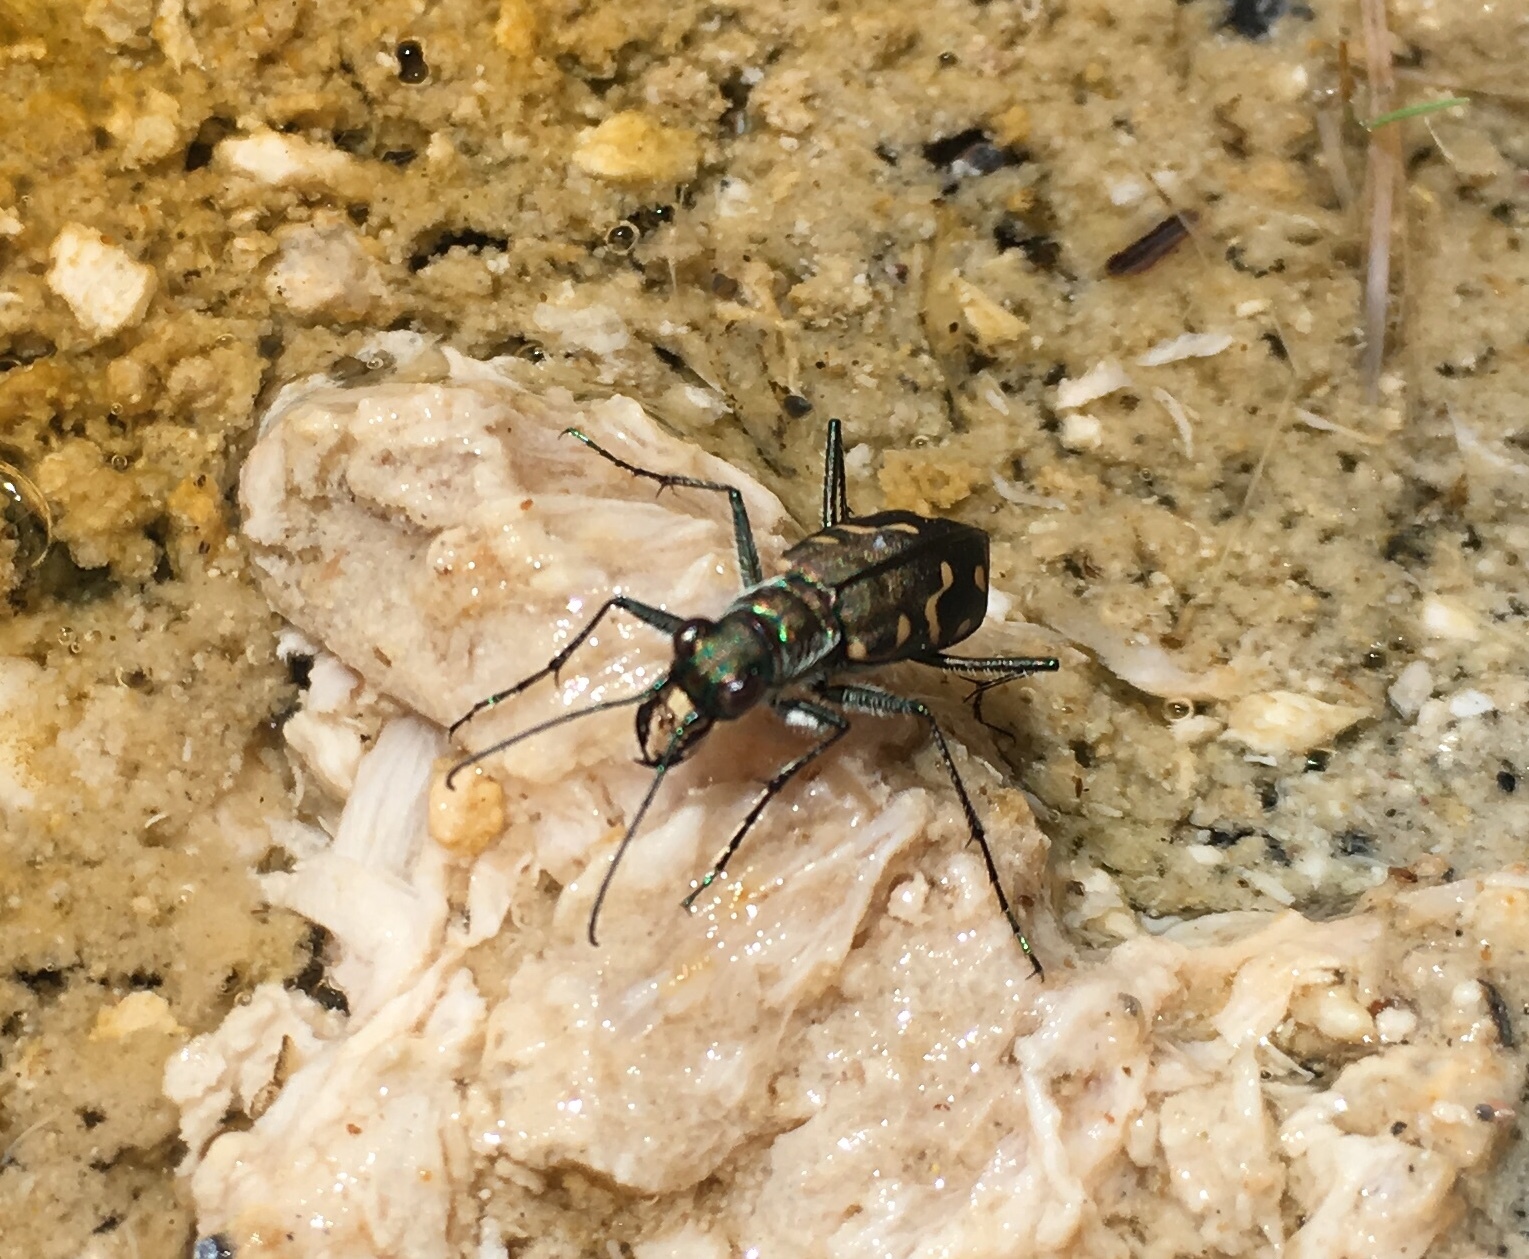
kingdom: Animalia
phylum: Arthropoda
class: Insecta
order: Coleoptera
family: Carabidae
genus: Cicindela
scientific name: Cicindela hemorrhagica
